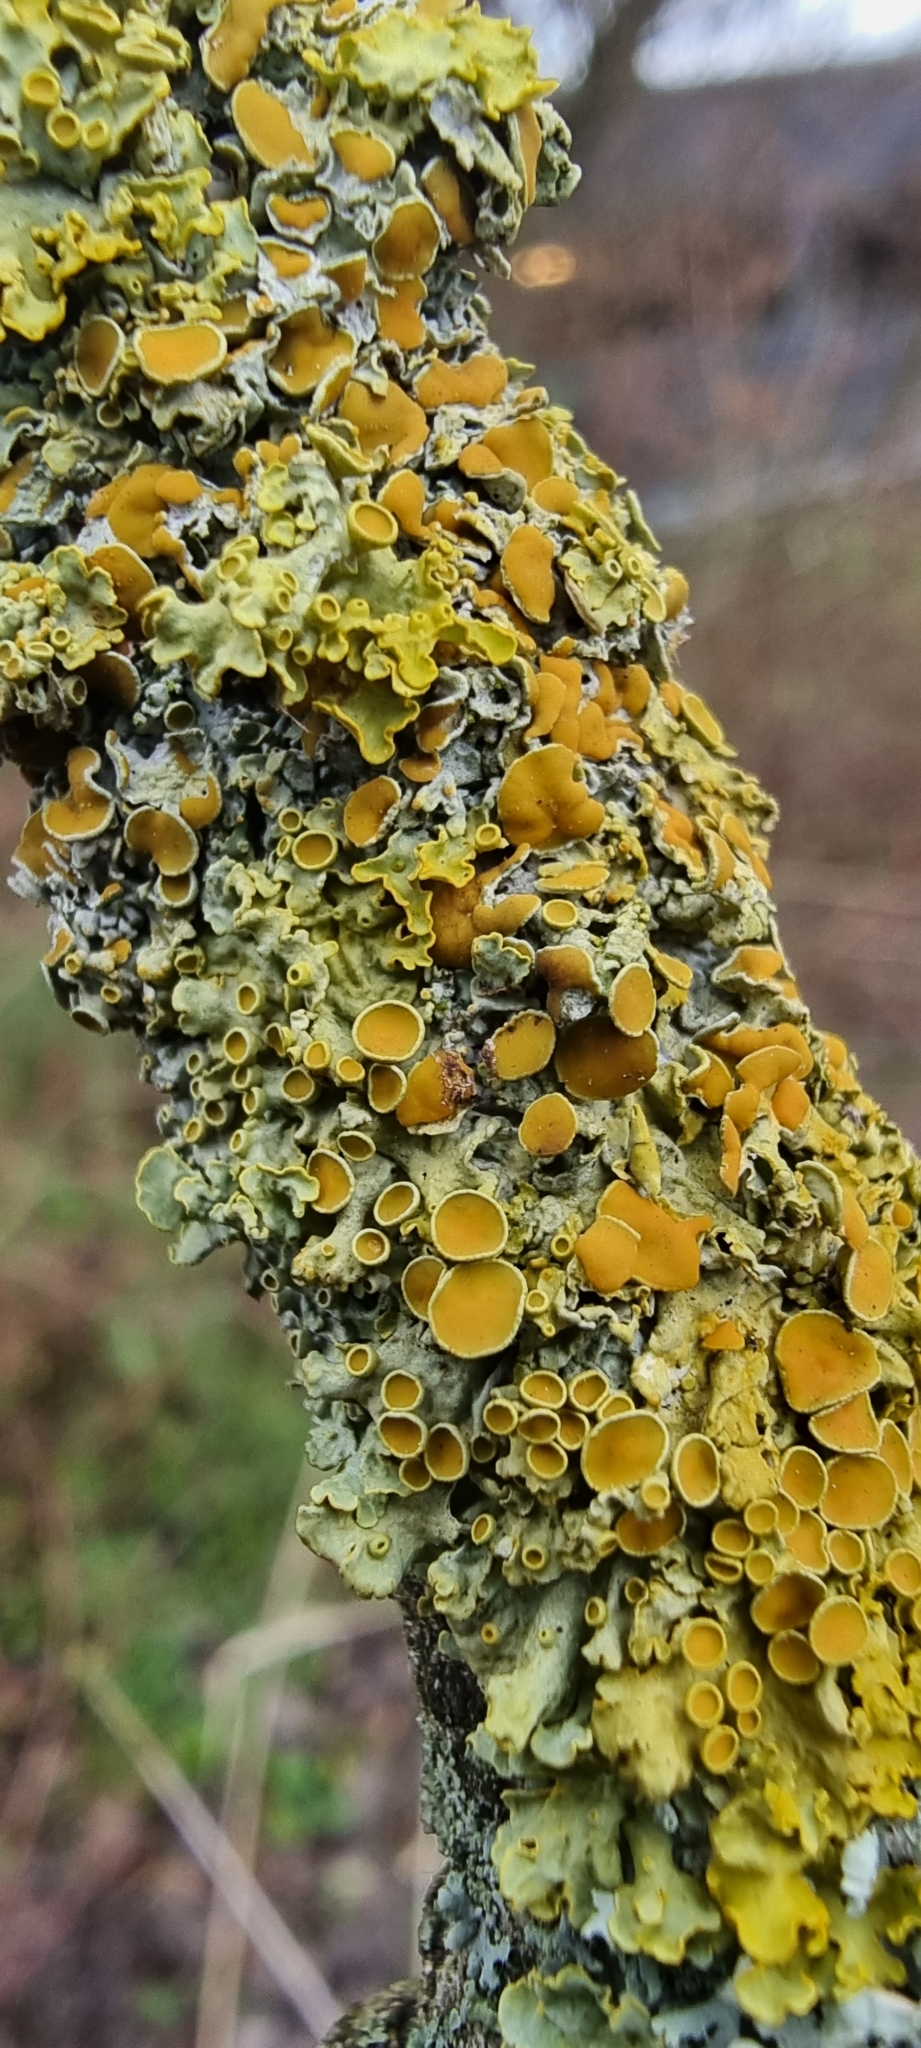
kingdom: Fungi
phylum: Ascomycota
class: Lecanoromycetes
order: Teloschistales
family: Teloschistaceae
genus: Xanthoria
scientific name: Xanthoria parietina
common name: Common orange lichen
